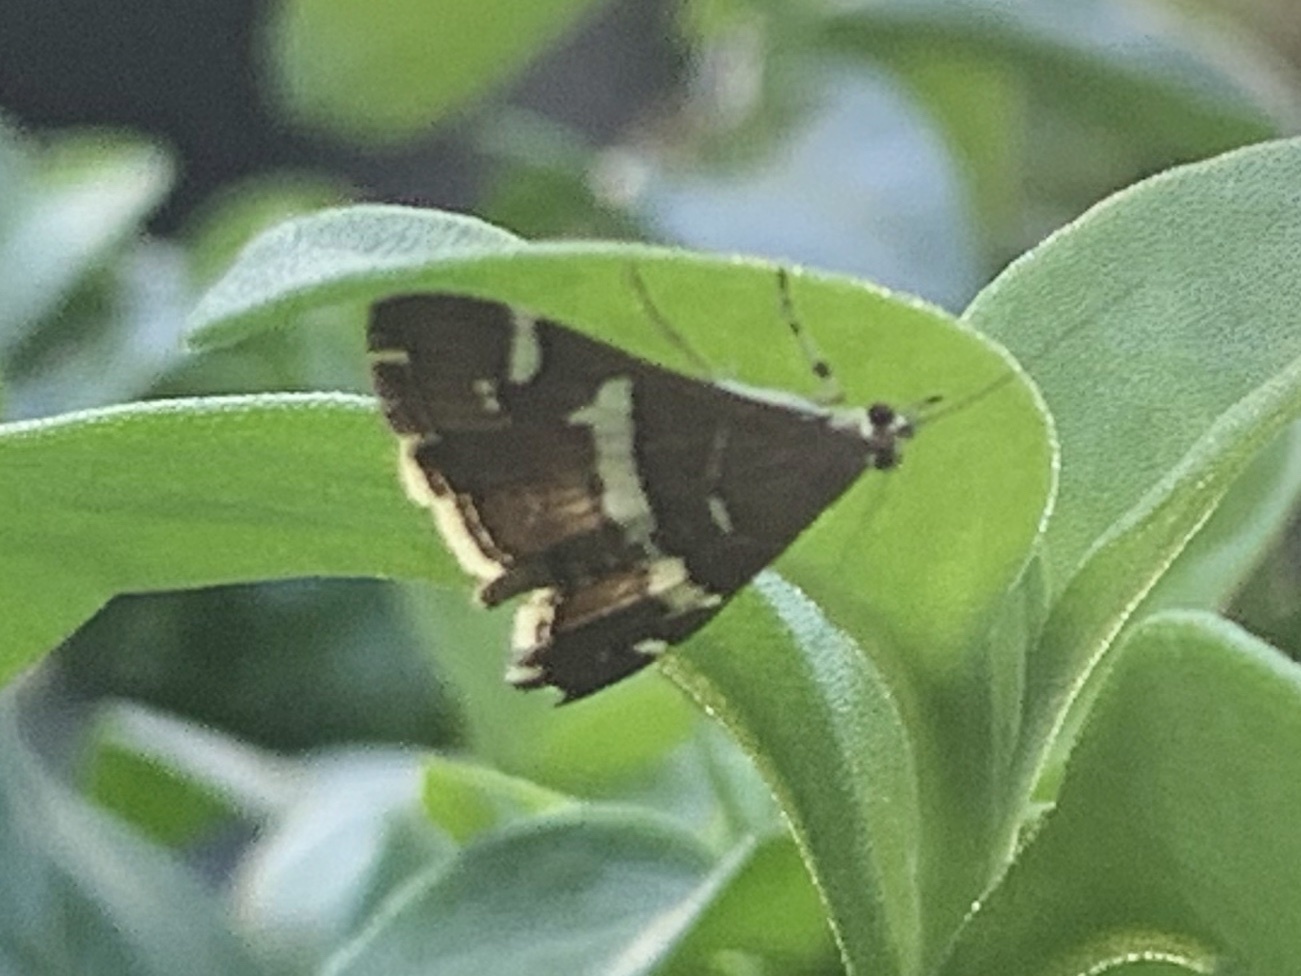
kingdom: Animalia
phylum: Arthropoda
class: Insecta
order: Lepidoptera
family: Crambidae
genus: Spoladea
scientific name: Spoladea recurvalis
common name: Beet webworm moth
